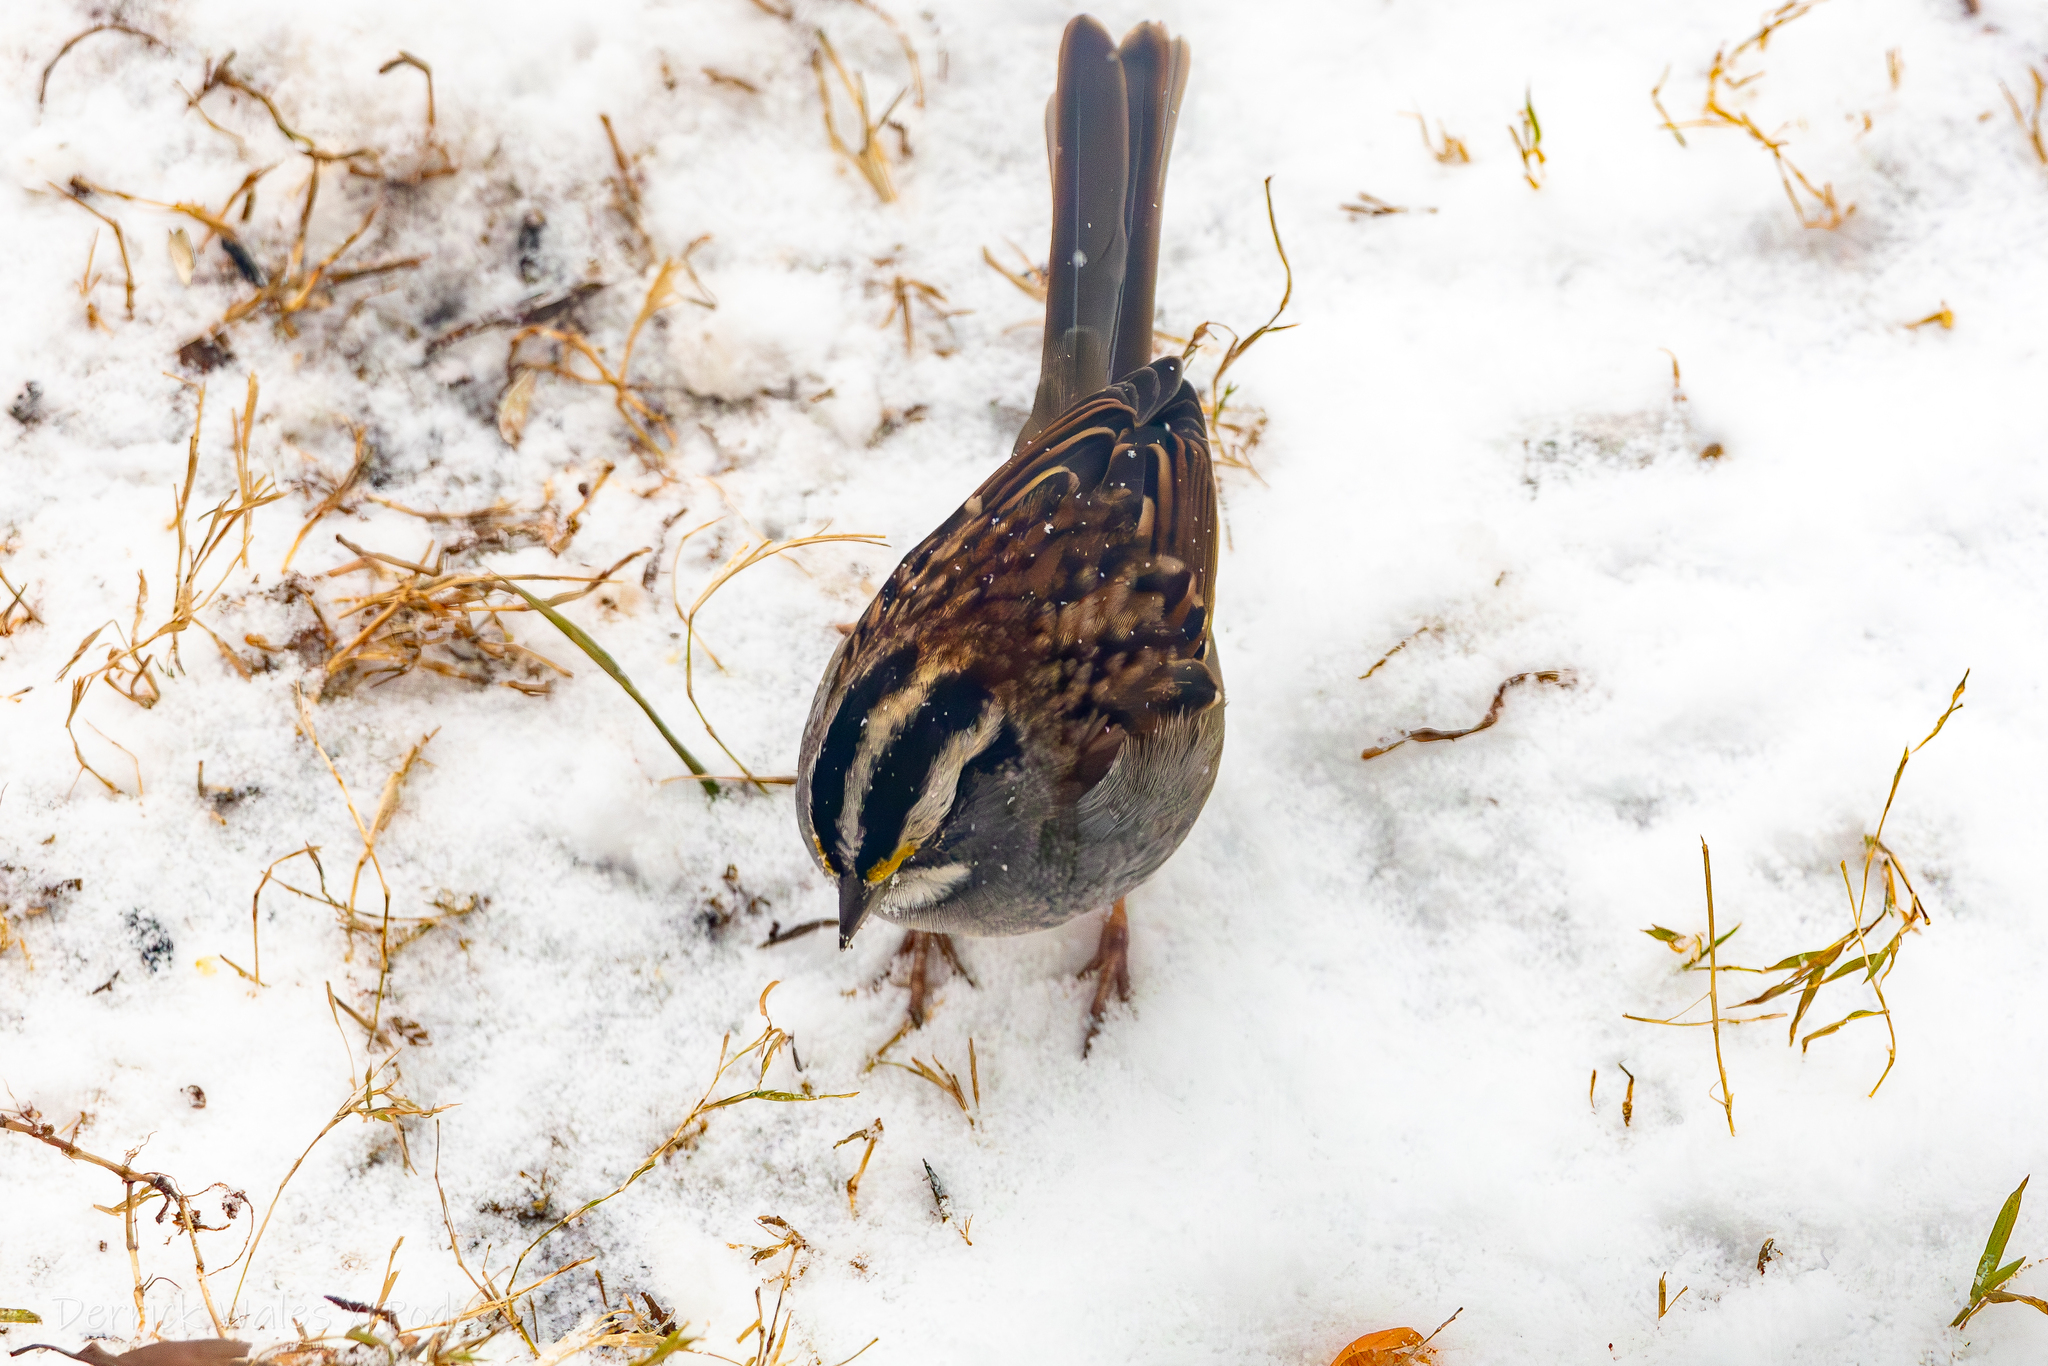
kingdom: Animalia
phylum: Chordata
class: Aves
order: Passeriformes
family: Passerellidae
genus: Zonotrichia
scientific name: Zonotrichia albicollis
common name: White-throated sparrow
